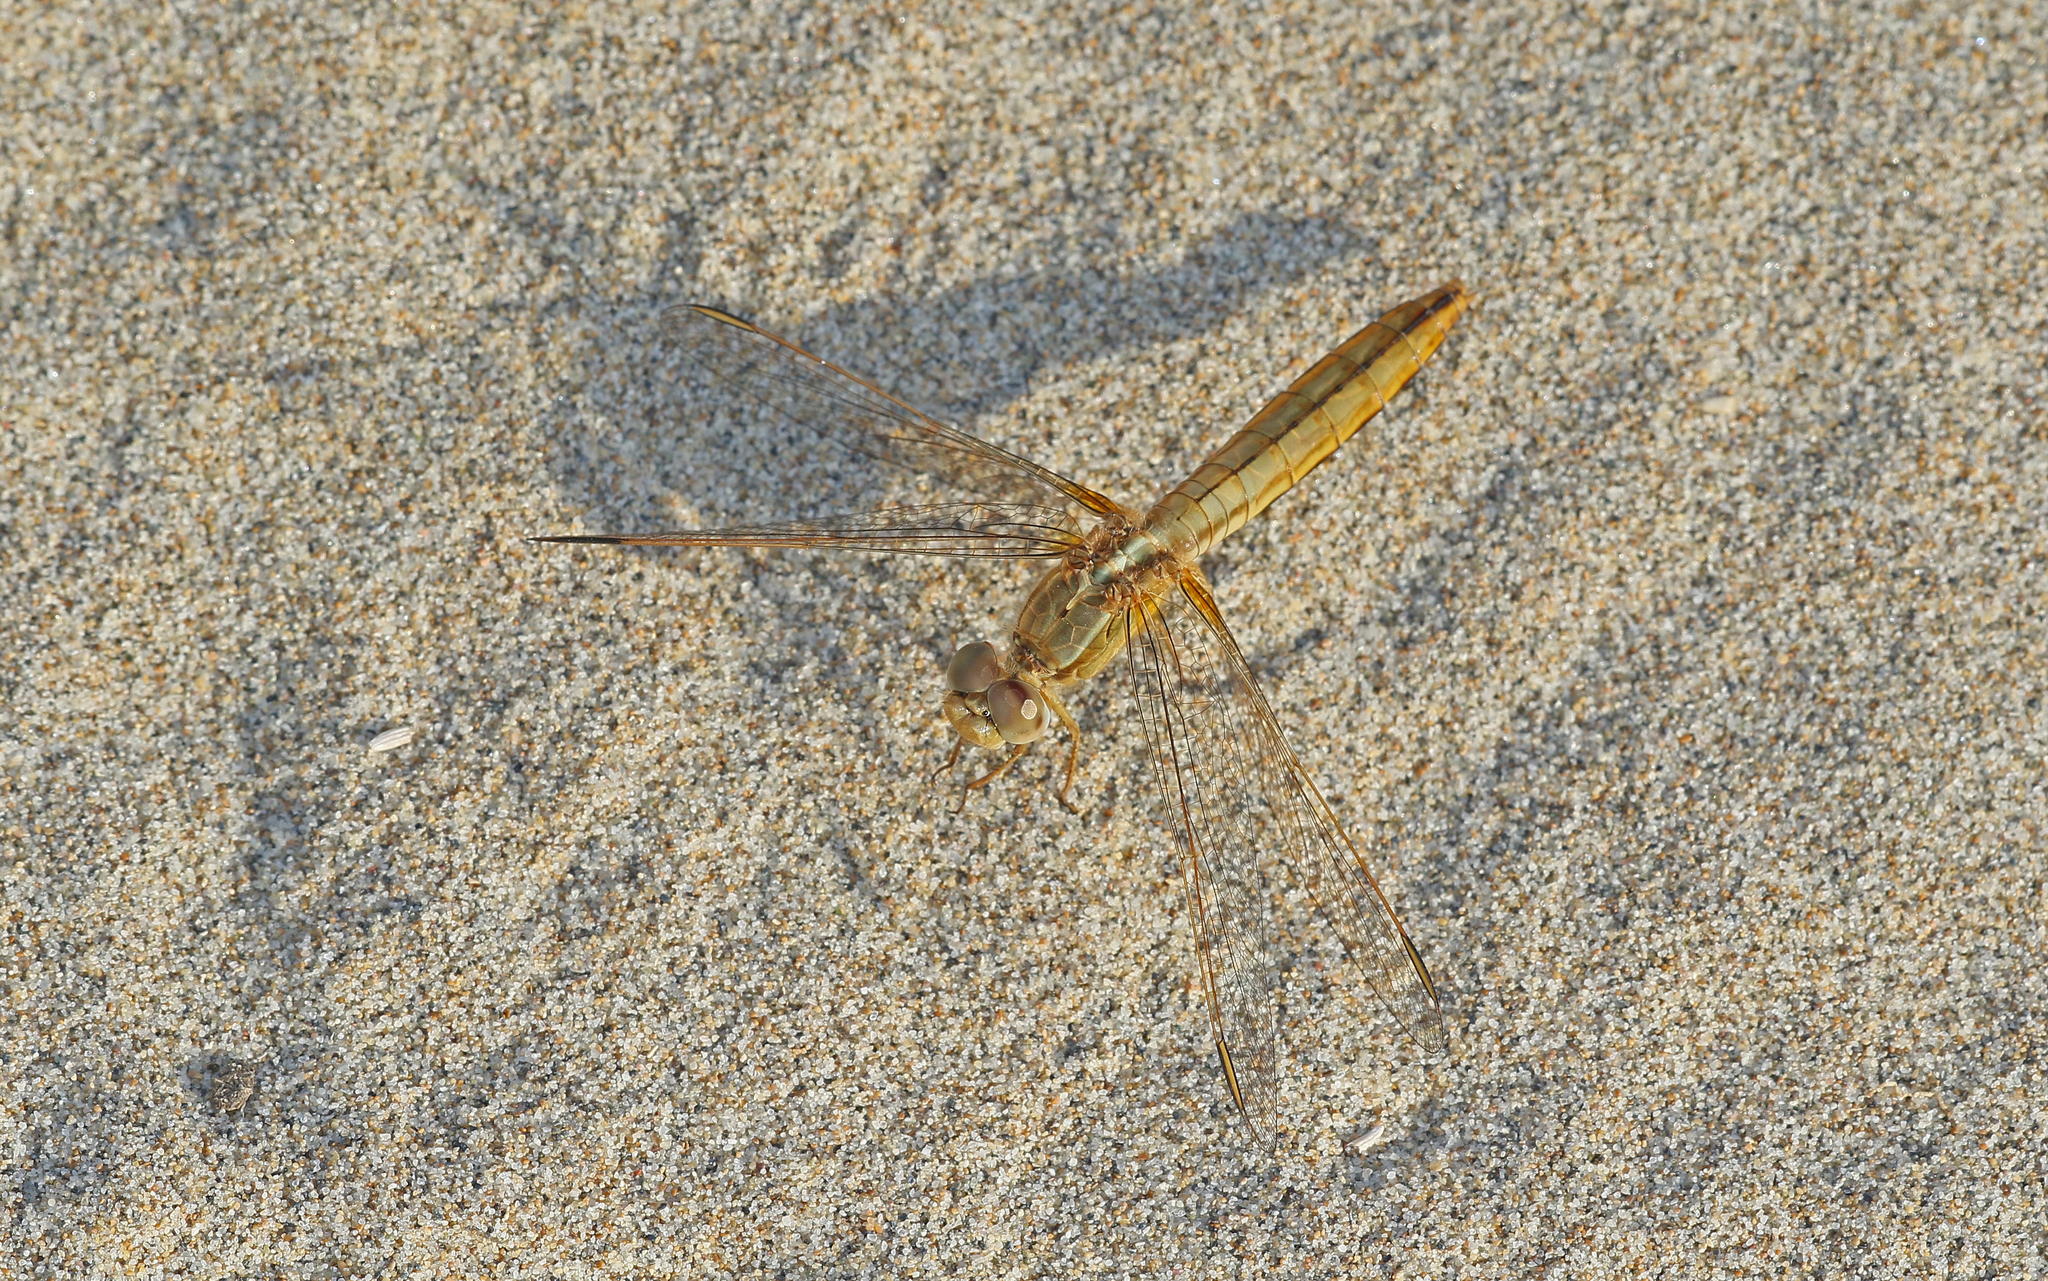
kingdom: Animalia
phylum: Arthropoda
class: Insecta
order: Odonata
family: Libellulidae
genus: Crocothemis
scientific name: Crocothemis erythraea
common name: Scarlet dragonfly
